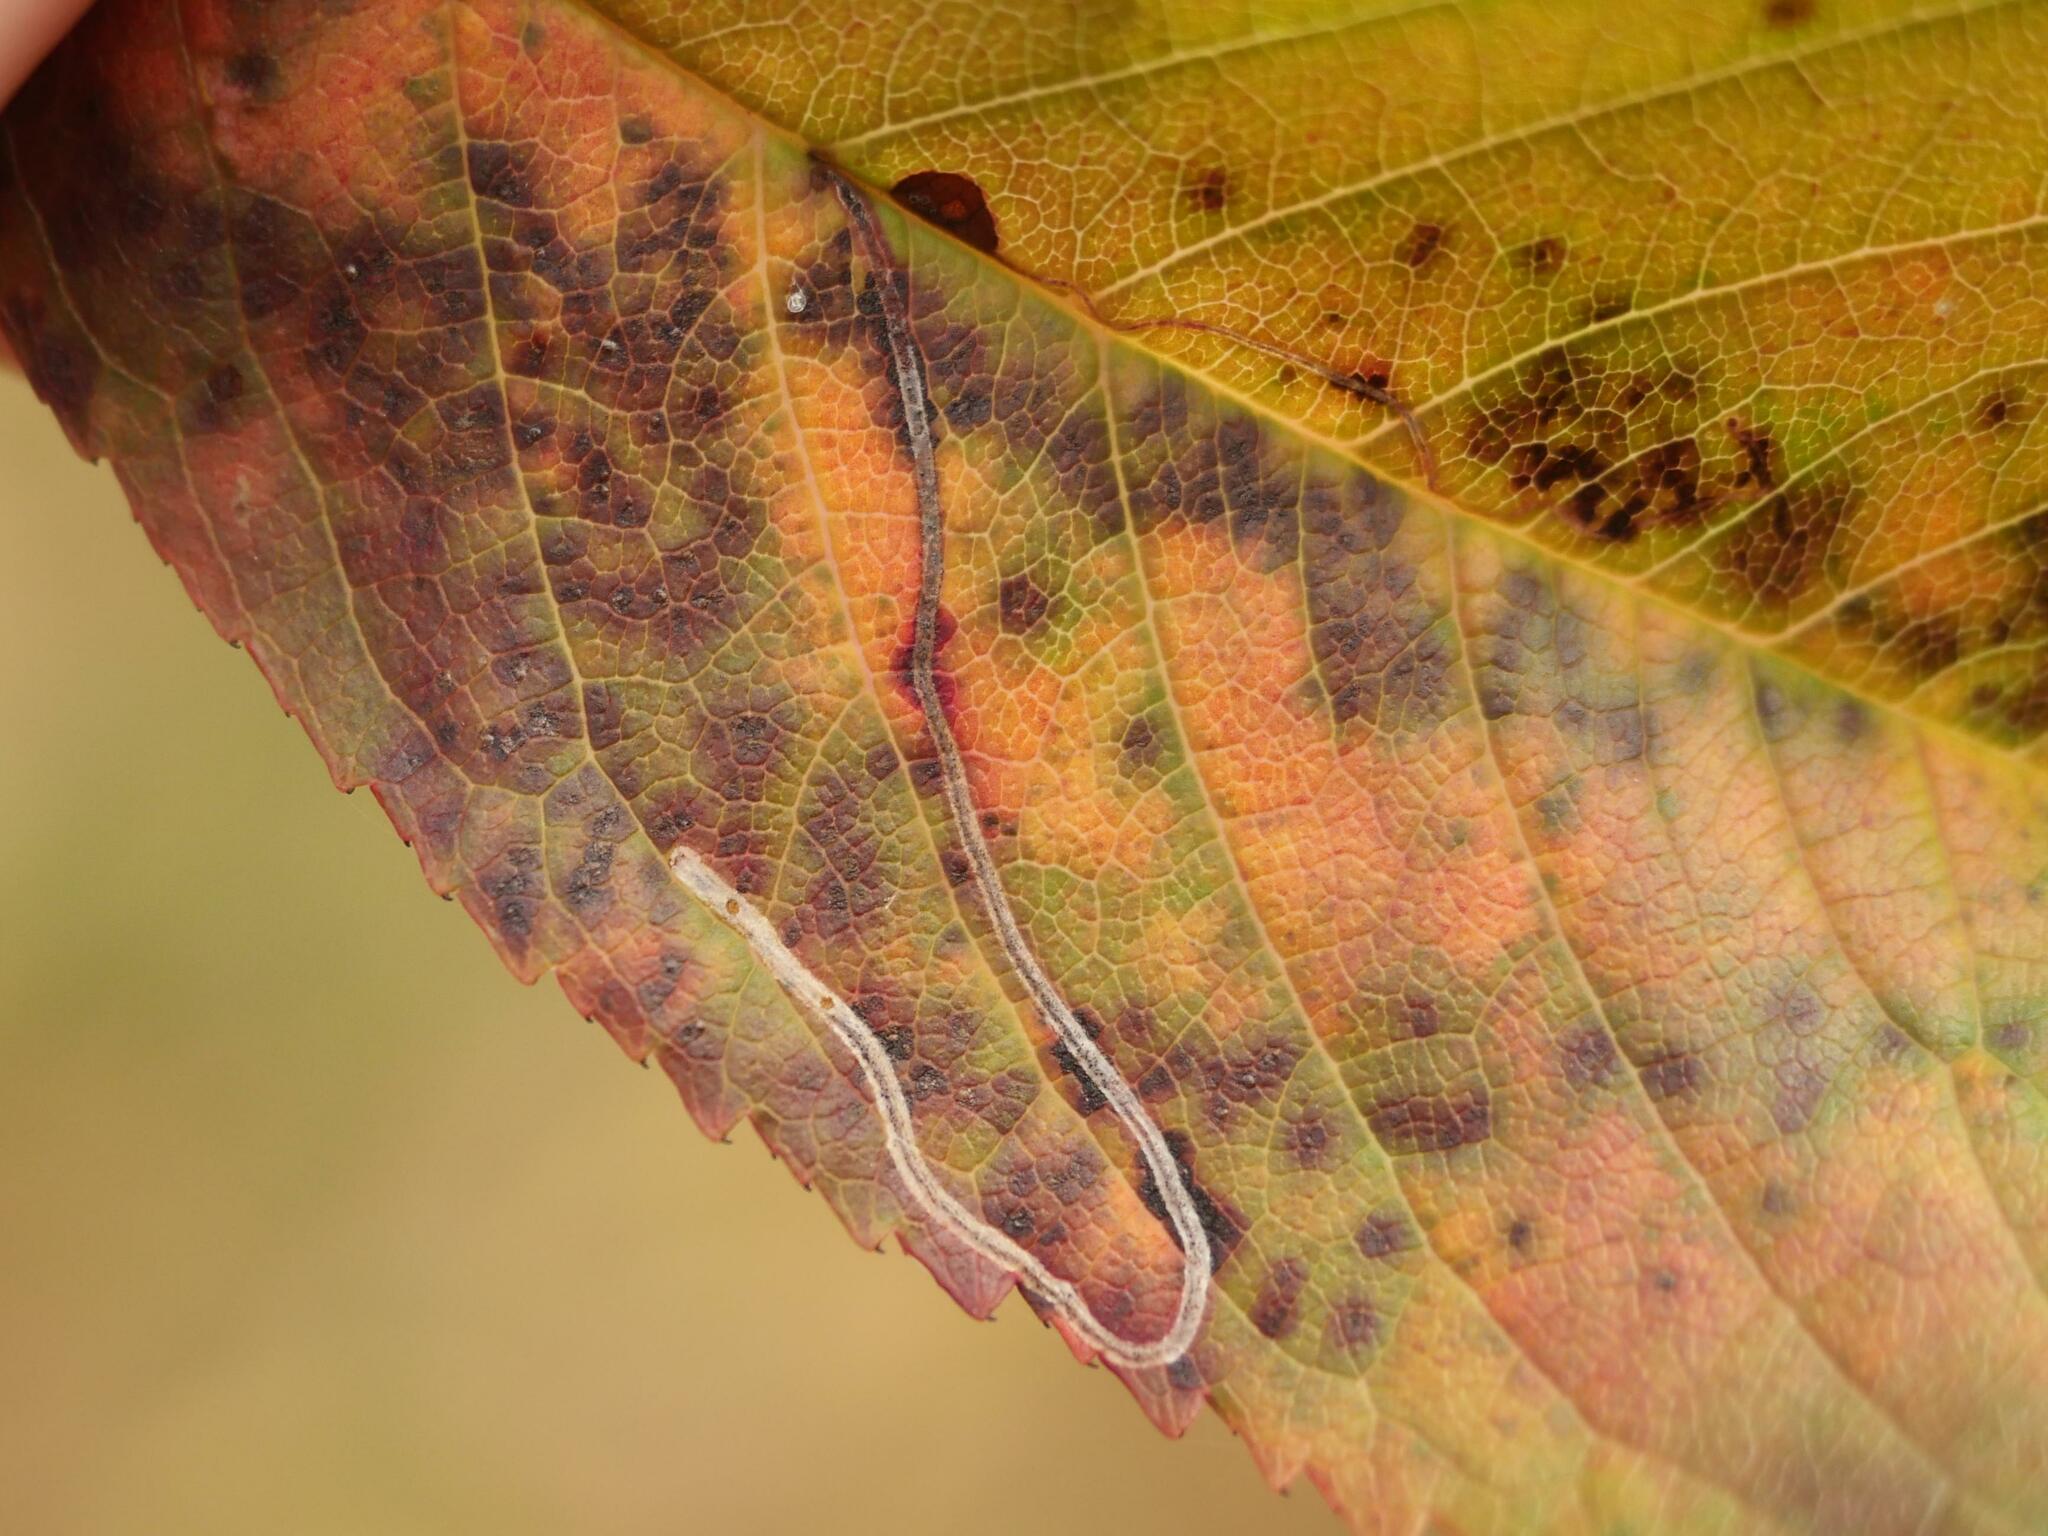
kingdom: Animalia
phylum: Arthropoda
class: Insecta
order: Lepidoptera
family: Lyonetiidae
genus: Lyonetia
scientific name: Lyonetia clerkella
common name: Apple leaf miner
